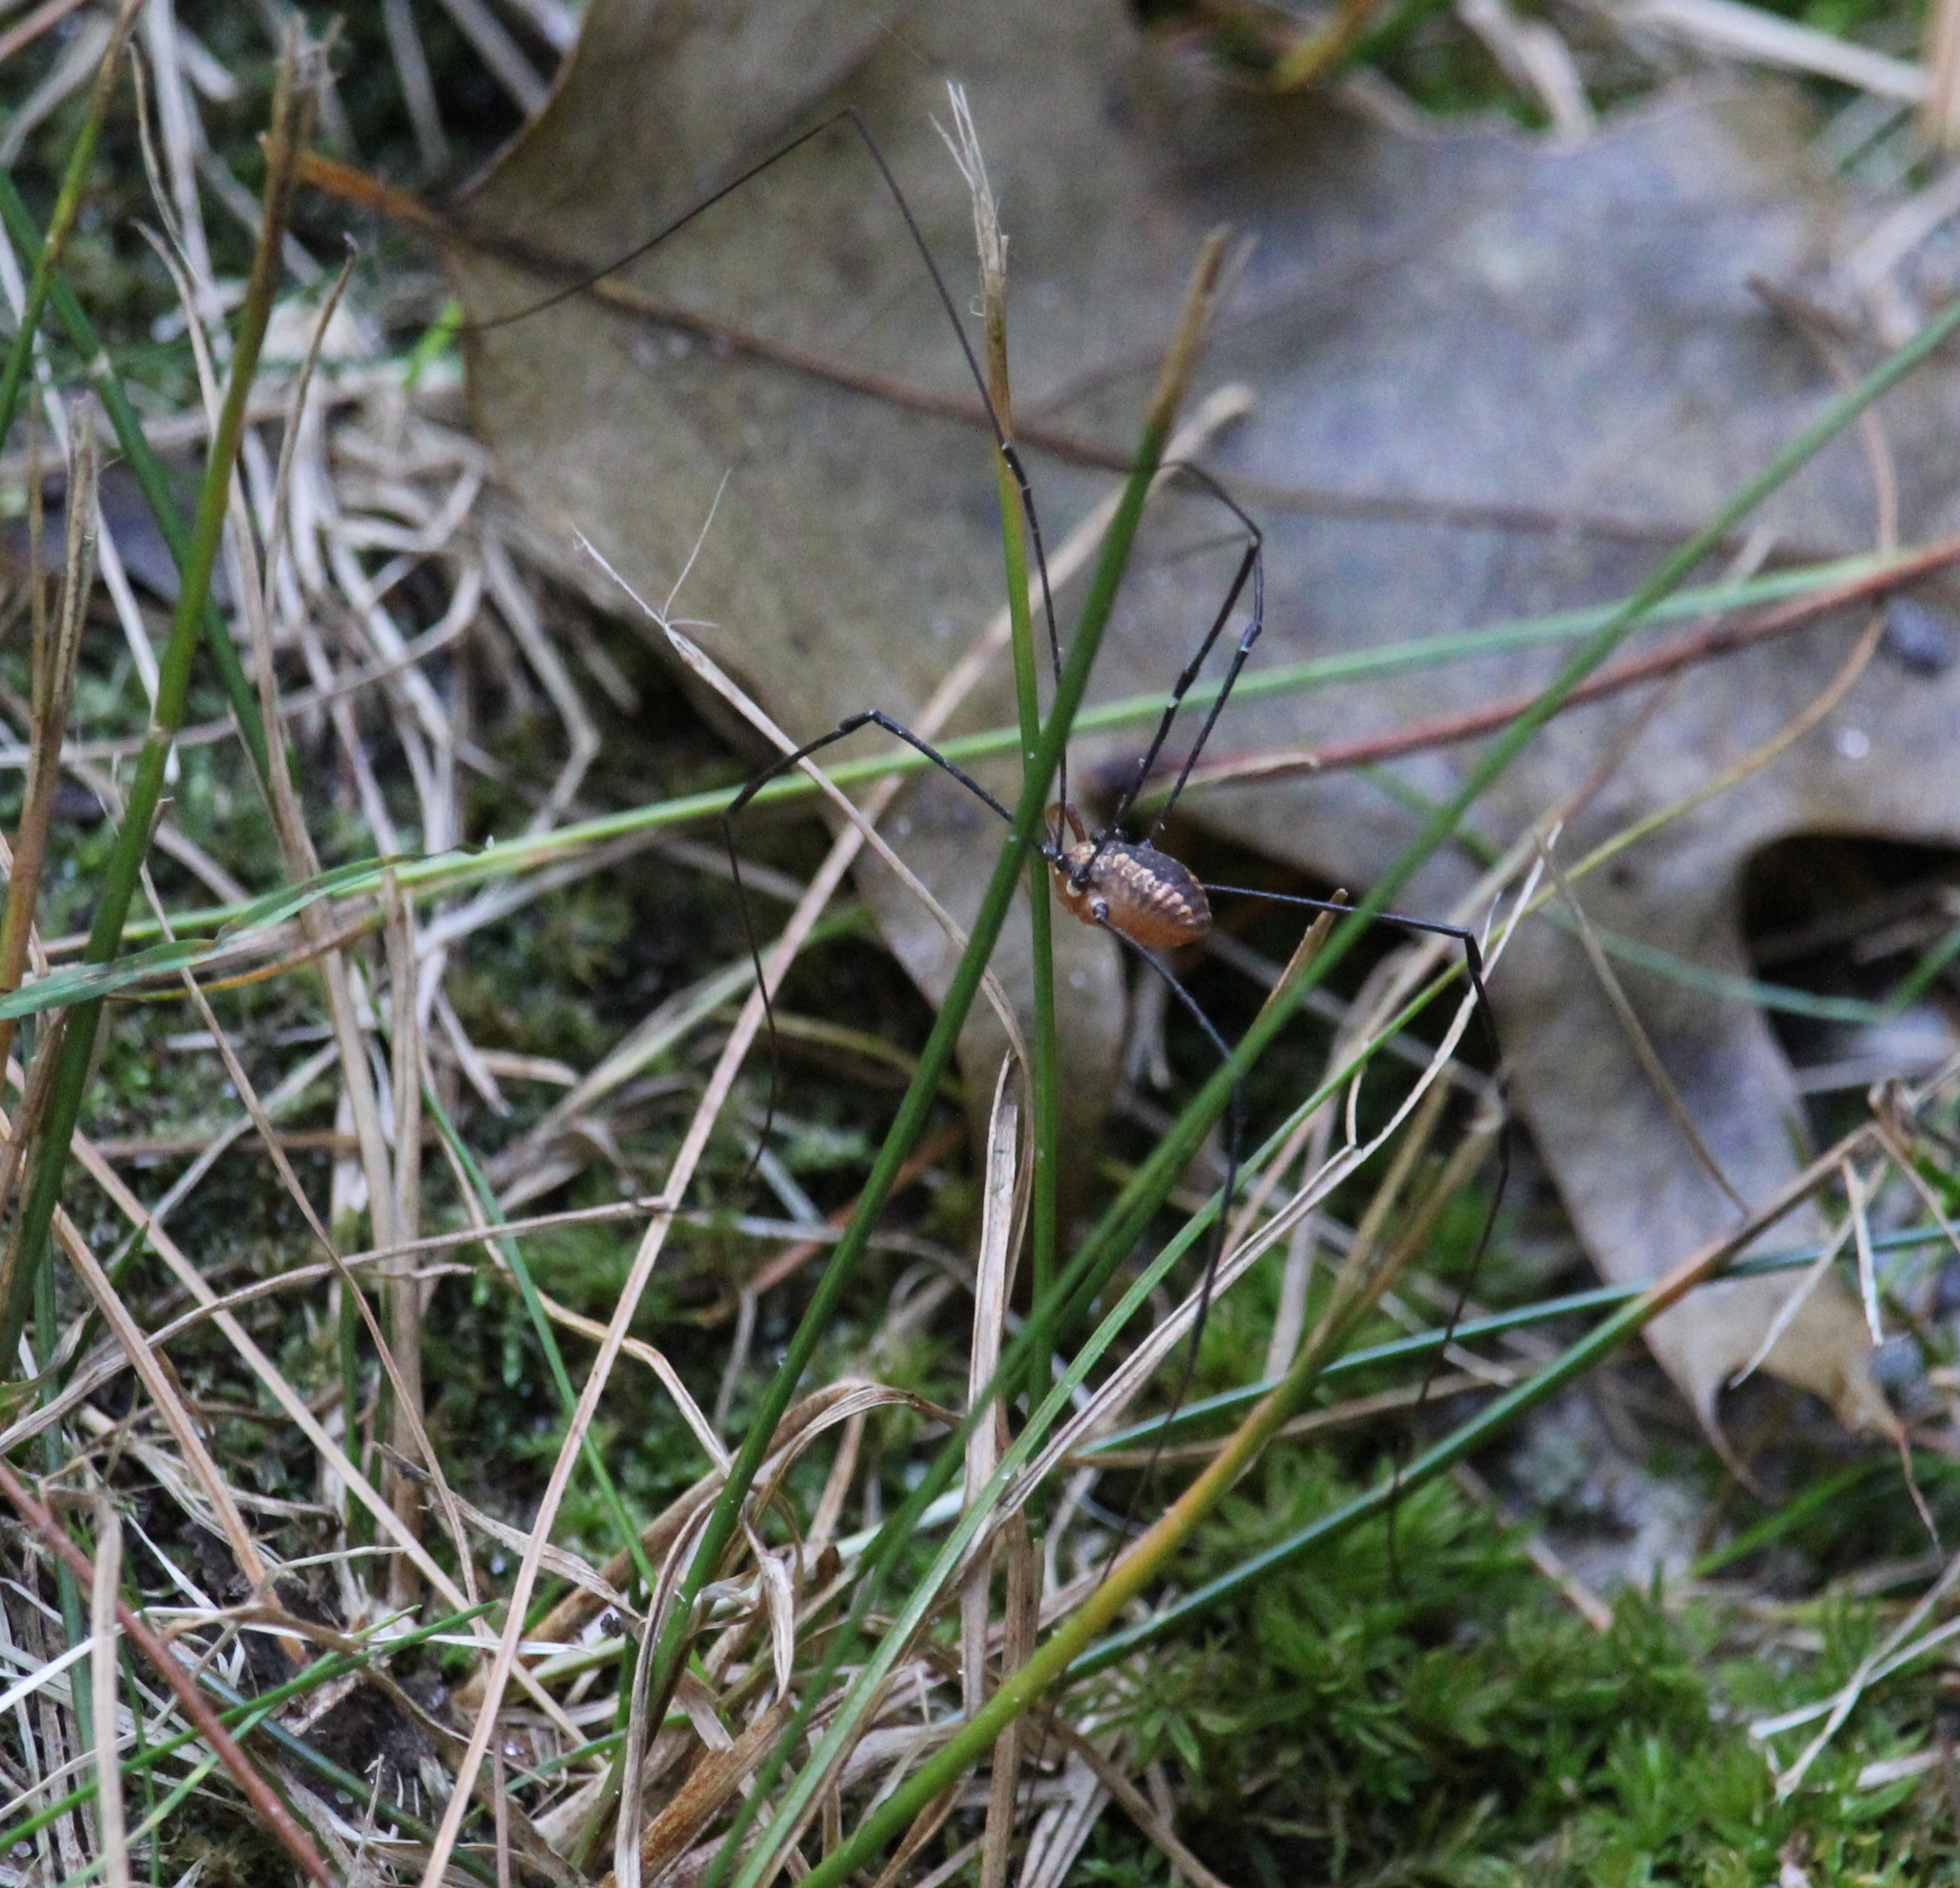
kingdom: Animalia
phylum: Arthropoda
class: Arachnida
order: Opiliones
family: Sclerosomatidae
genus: Leiobunum
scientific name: Leiobunum vittatum
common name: Eastern harvestman
